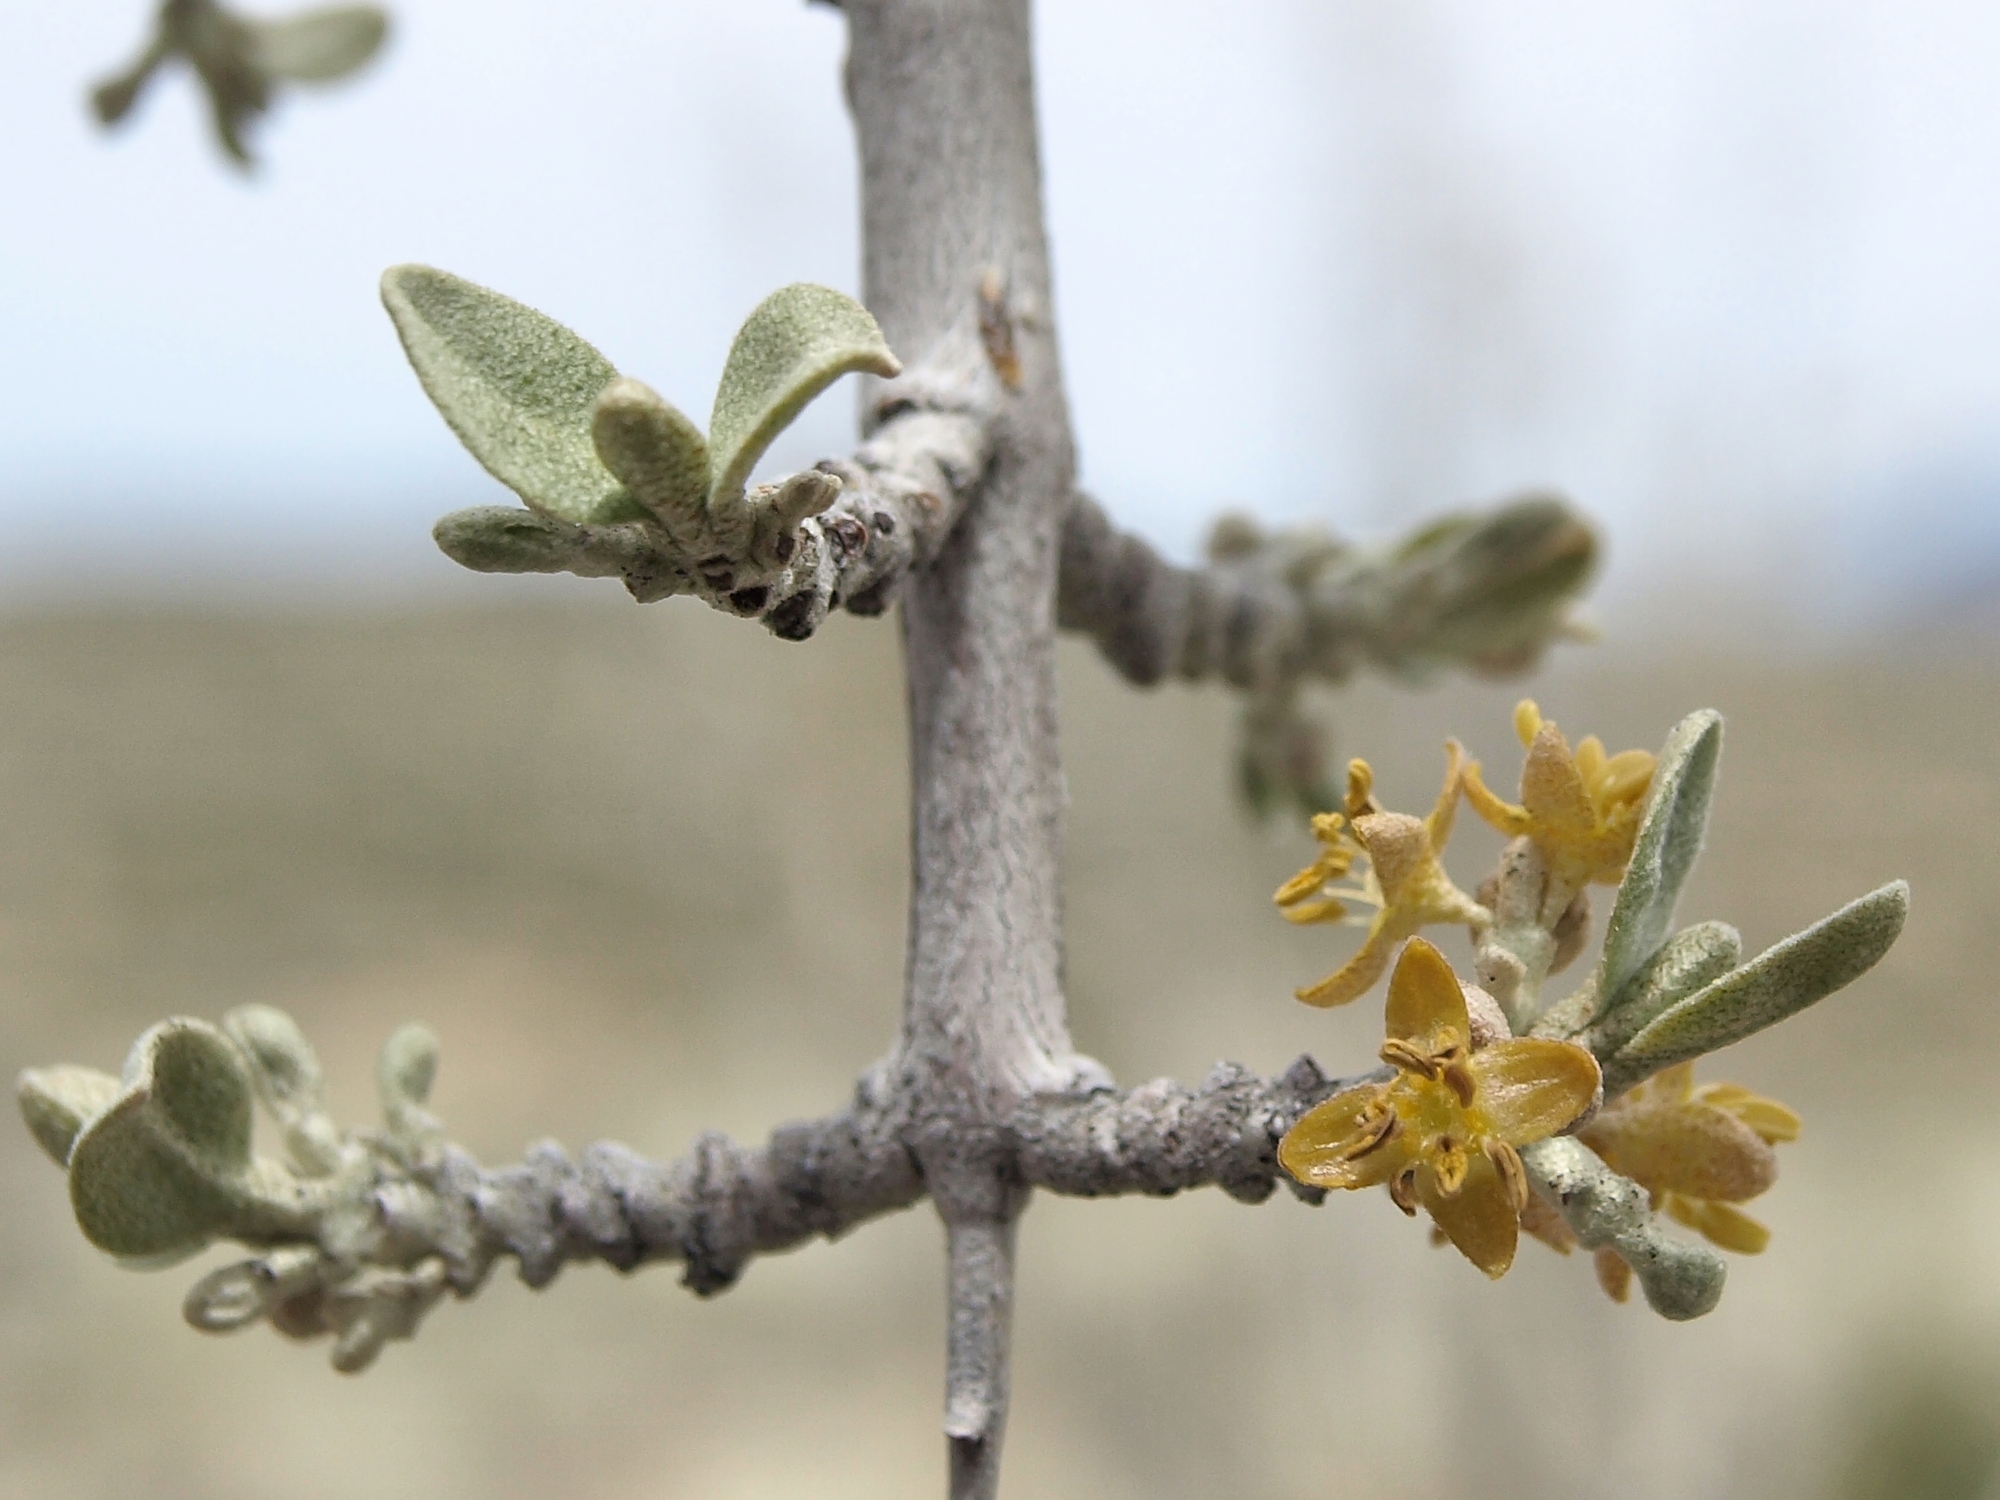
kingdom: Plantae
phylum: Tracheophyta
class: Magnoliopsida
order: Rosales
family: Elaeagnaceae
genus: Shepherdia
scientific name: Shepherdia argentea
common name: Silver buffaloberry
